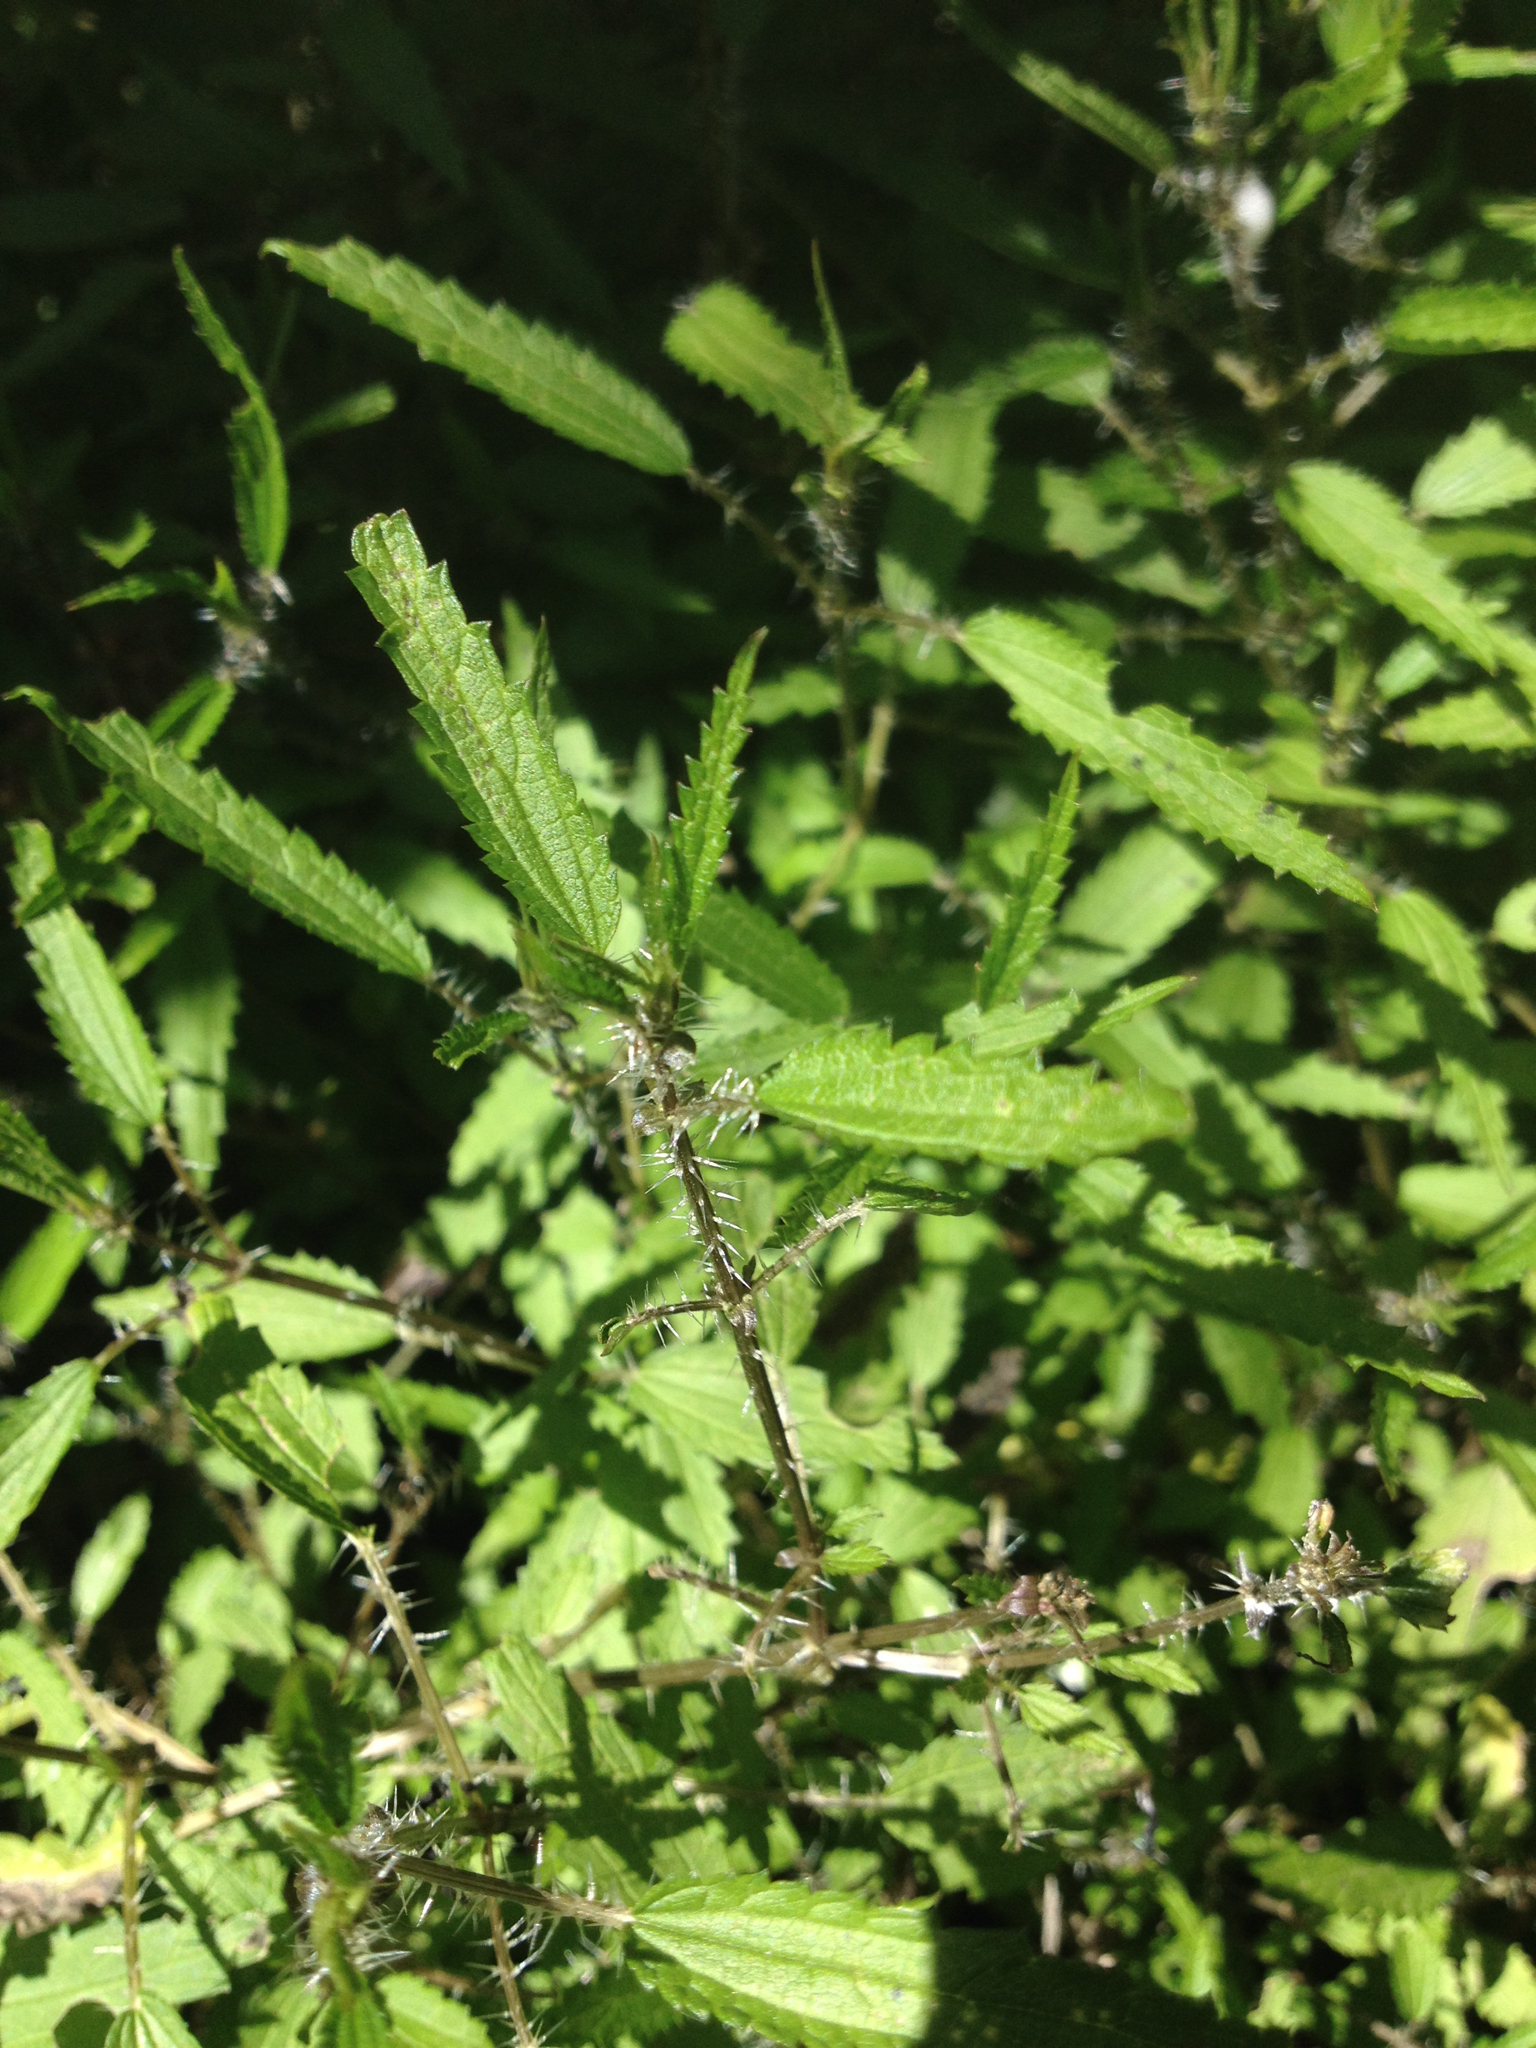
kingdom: Plantae
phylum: Tracheophyta
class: Magnoliopsida
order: Rosales
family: Urticaceae
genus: Urtica
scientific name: Urtica perconfusa
